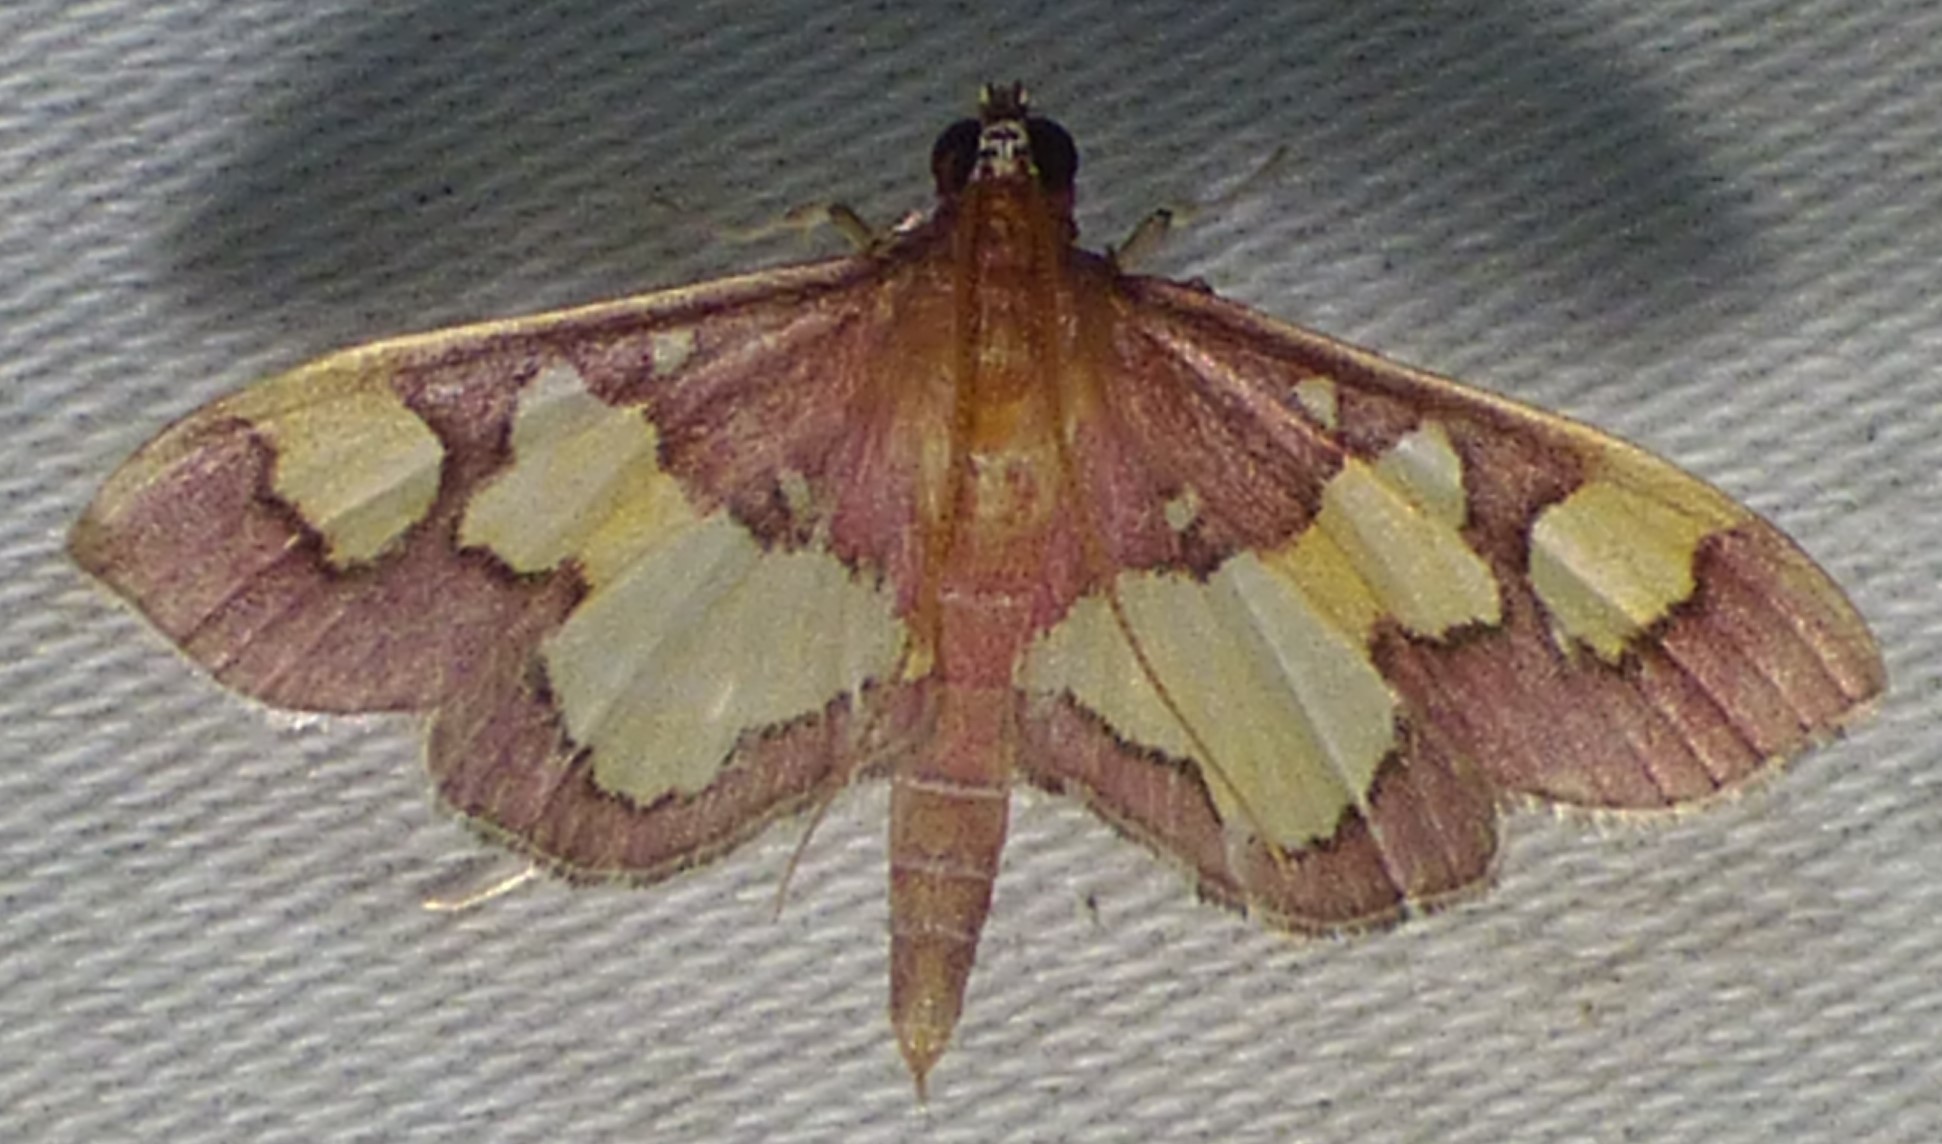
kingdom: Animalia
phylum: Arthropoda
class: Insecta
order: Lepidoptera
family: Crambidae
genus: Colomychus
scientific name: Colomychus talis
